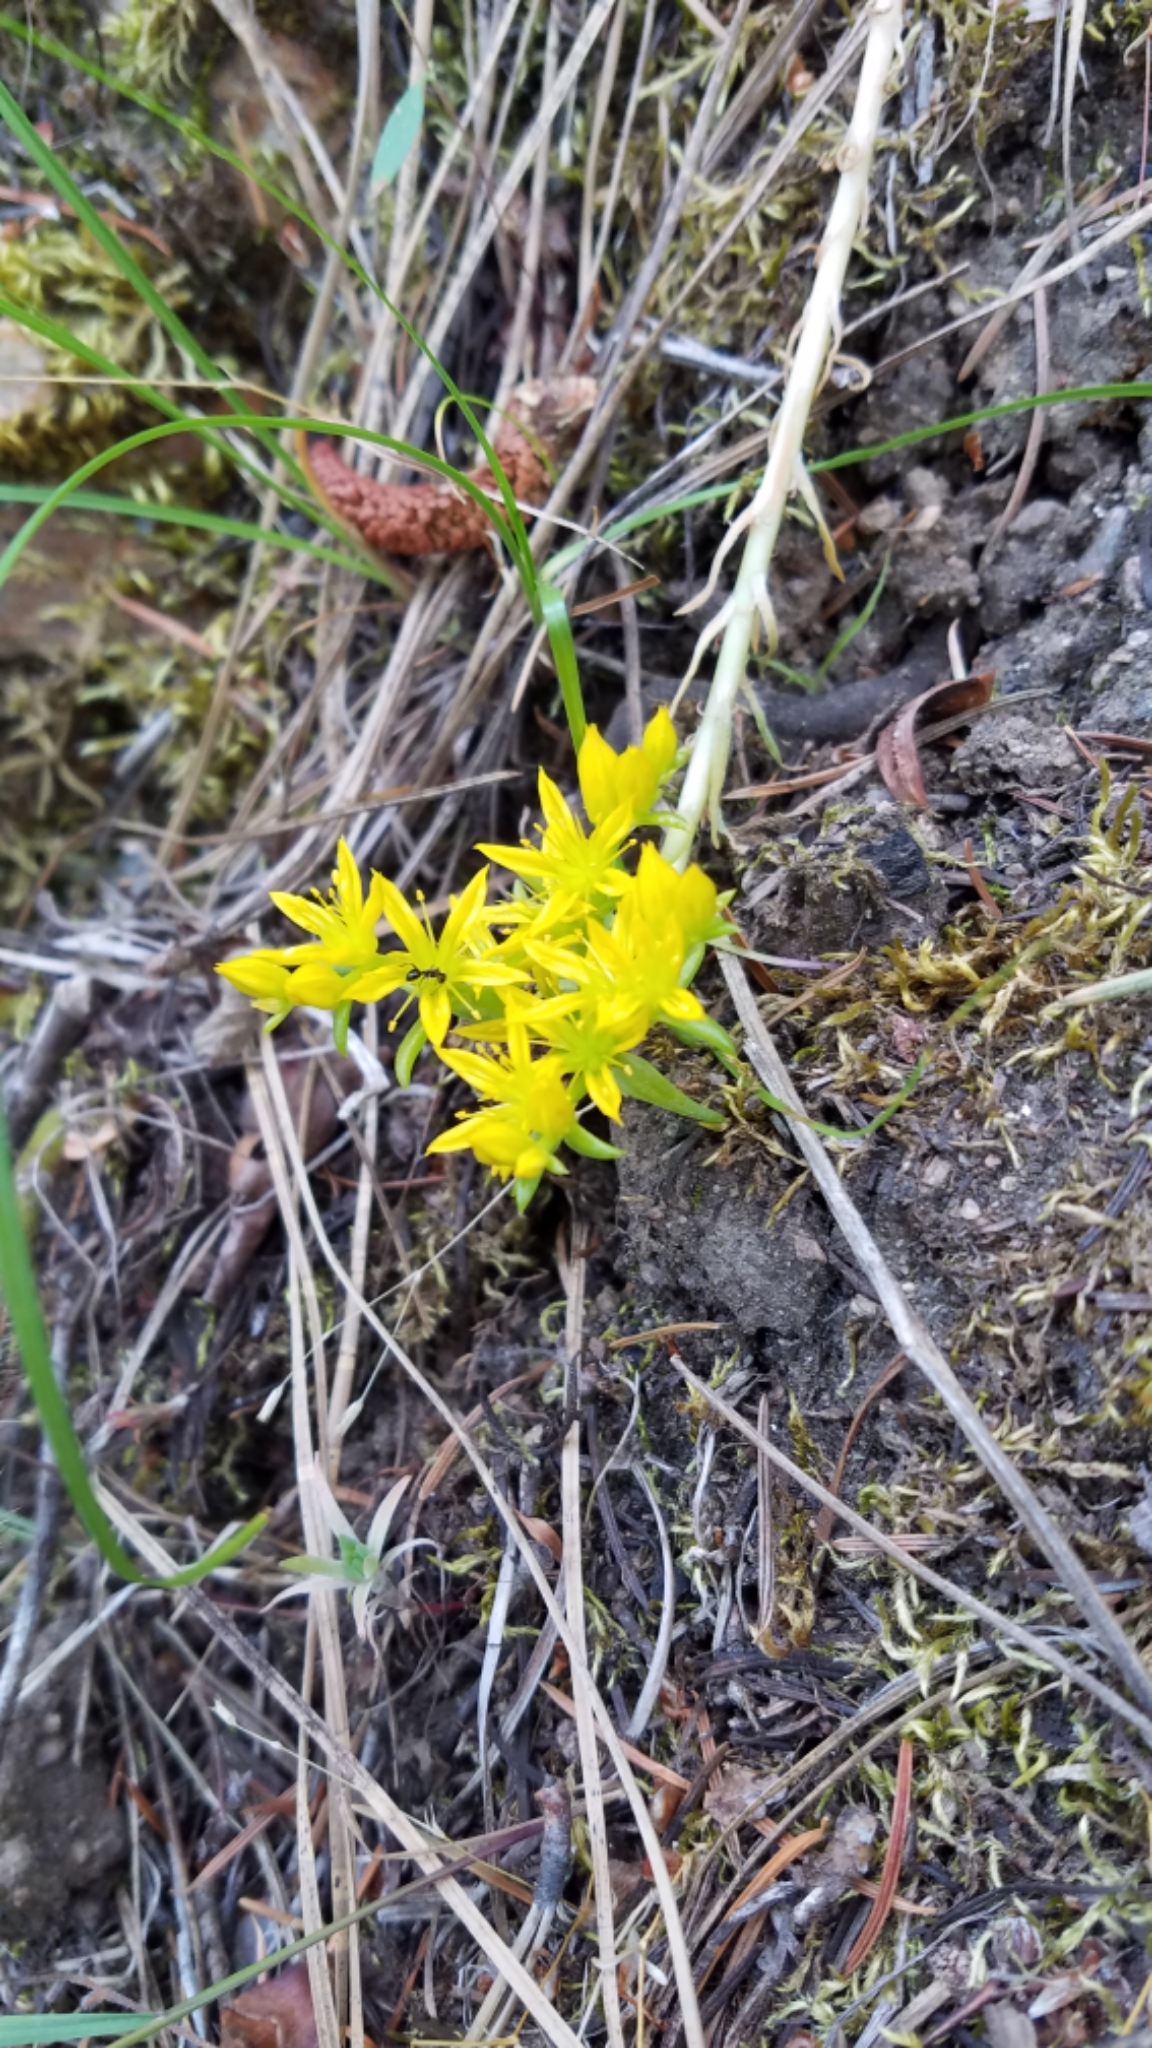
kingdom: Plantae
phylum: Tracheophyta
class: Magnoliopsida
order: Saxifragales
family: Crassulaceae
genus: Sedum
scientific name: Sedum stenopetalum
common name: Narrow-petaled stonecrop
